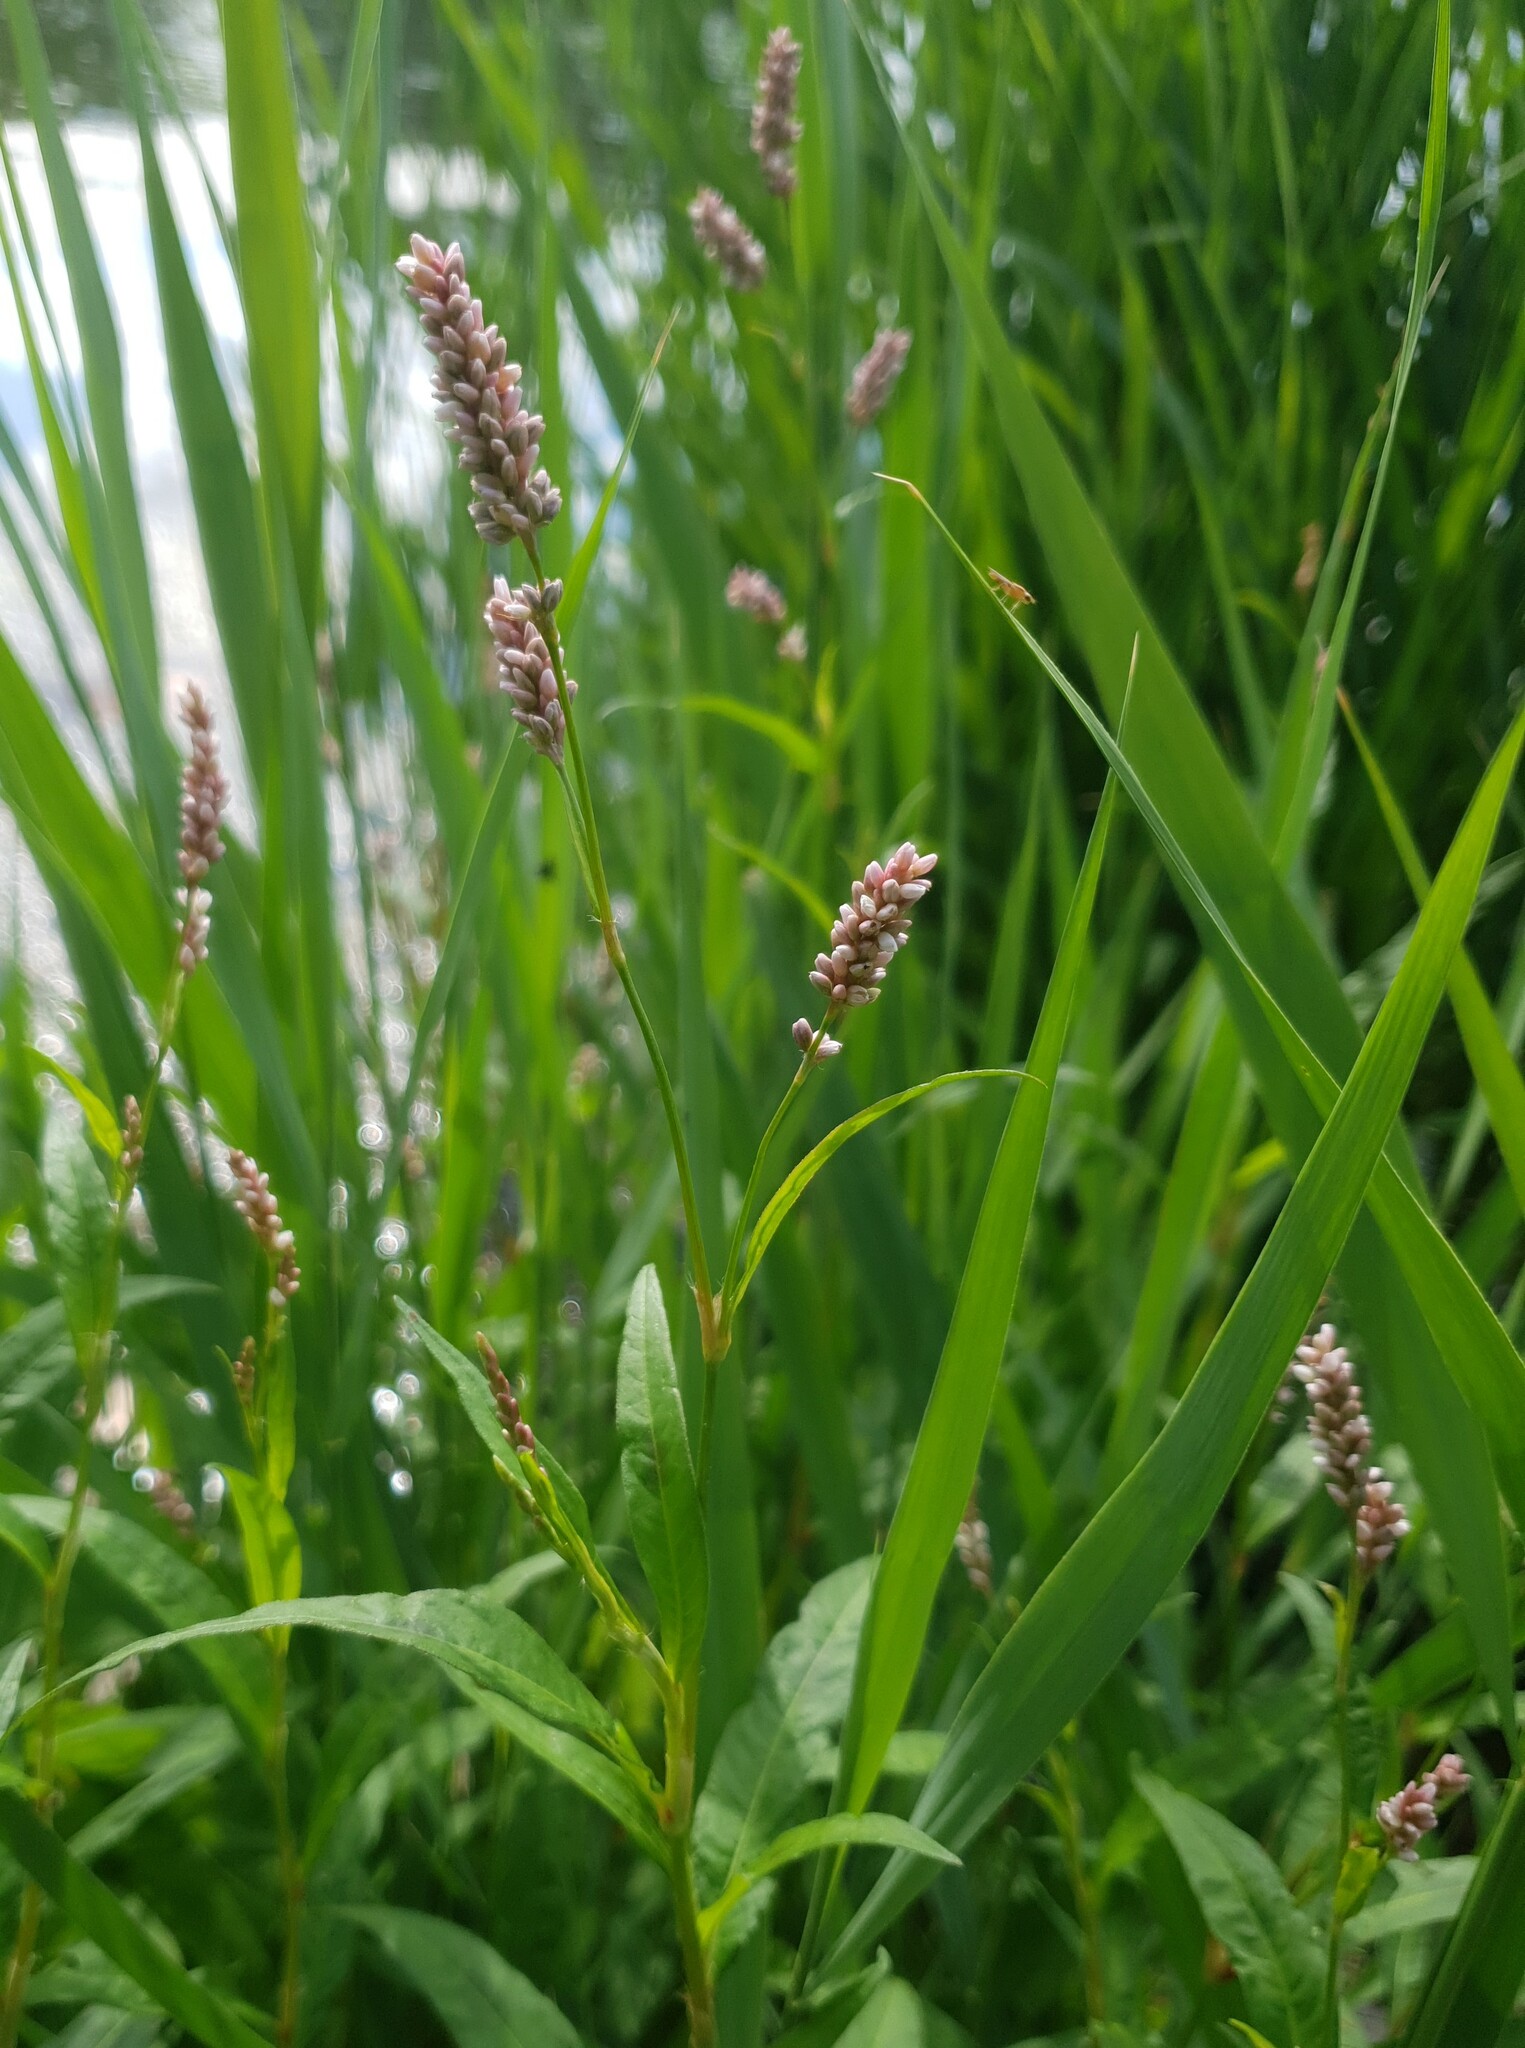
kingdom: Plantae
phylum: Tracheophyta
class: Magnoliopsida
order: Caryophyllales
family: Polygonaceae
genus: Persicaria
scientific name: Persicaria maculosa
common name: Redshank
